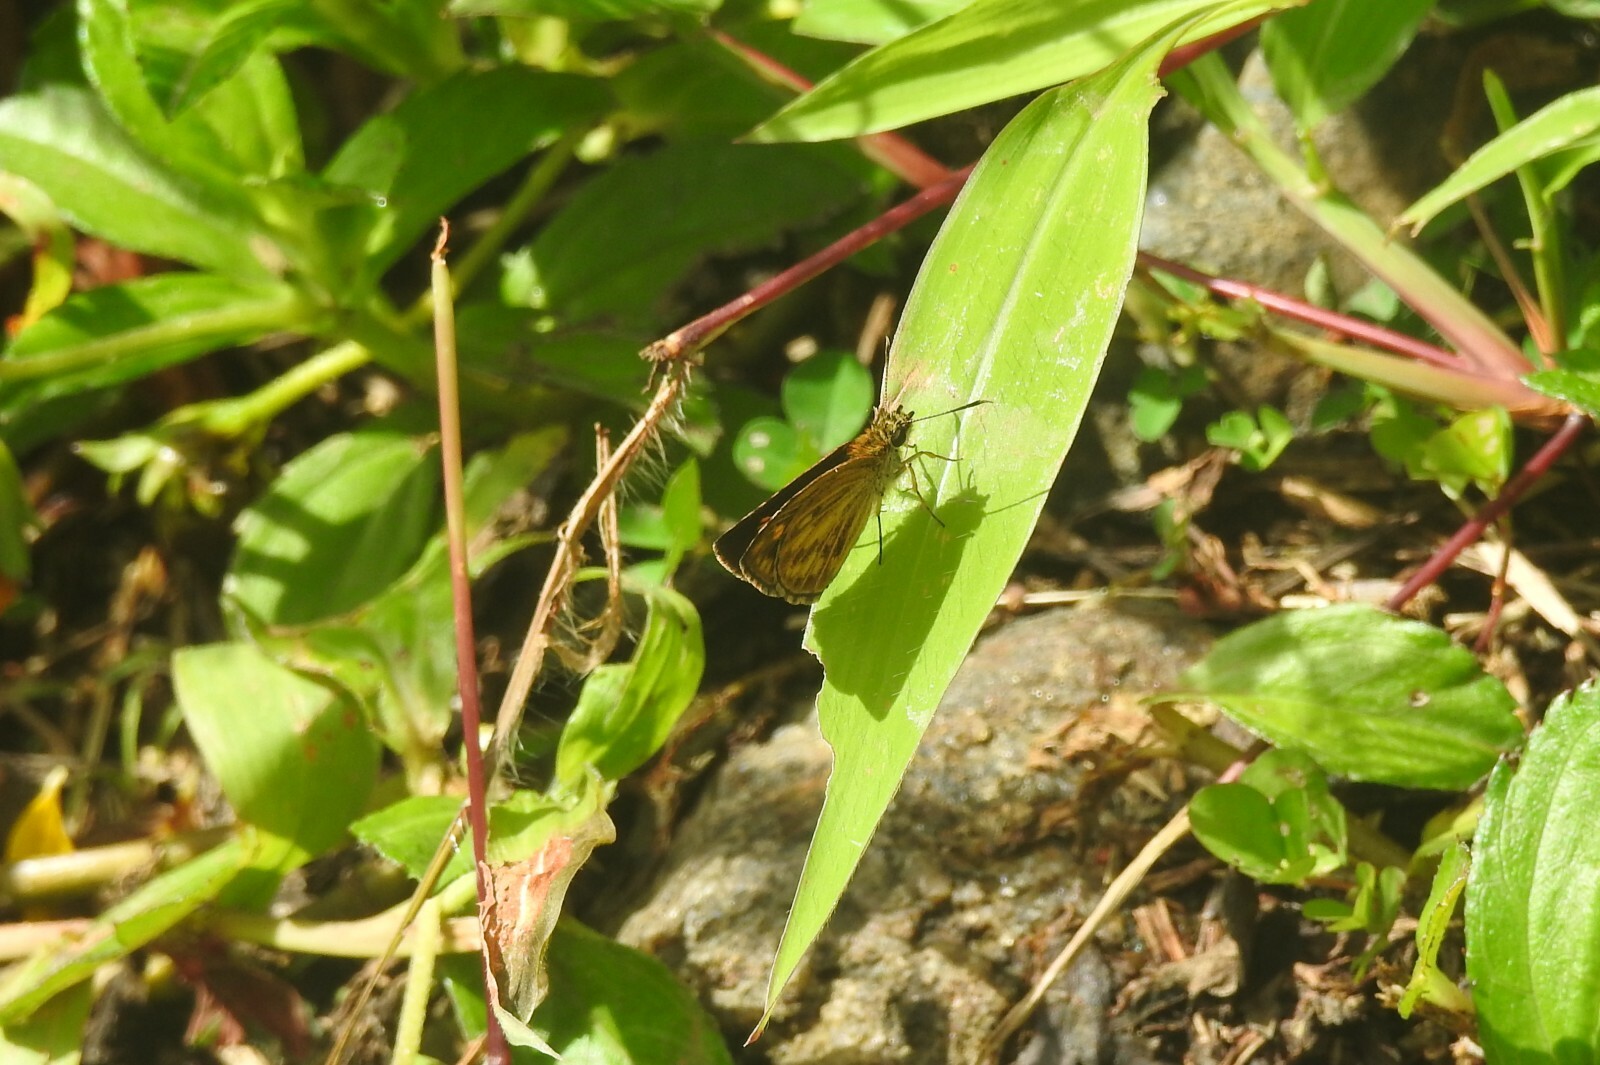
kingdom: Animalia
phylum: Arthropoda
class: Insecta
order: Lepidoptera
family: Hesperiidae
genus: Baracus
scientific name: Baracus vittatus
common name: Hedge-hopper
